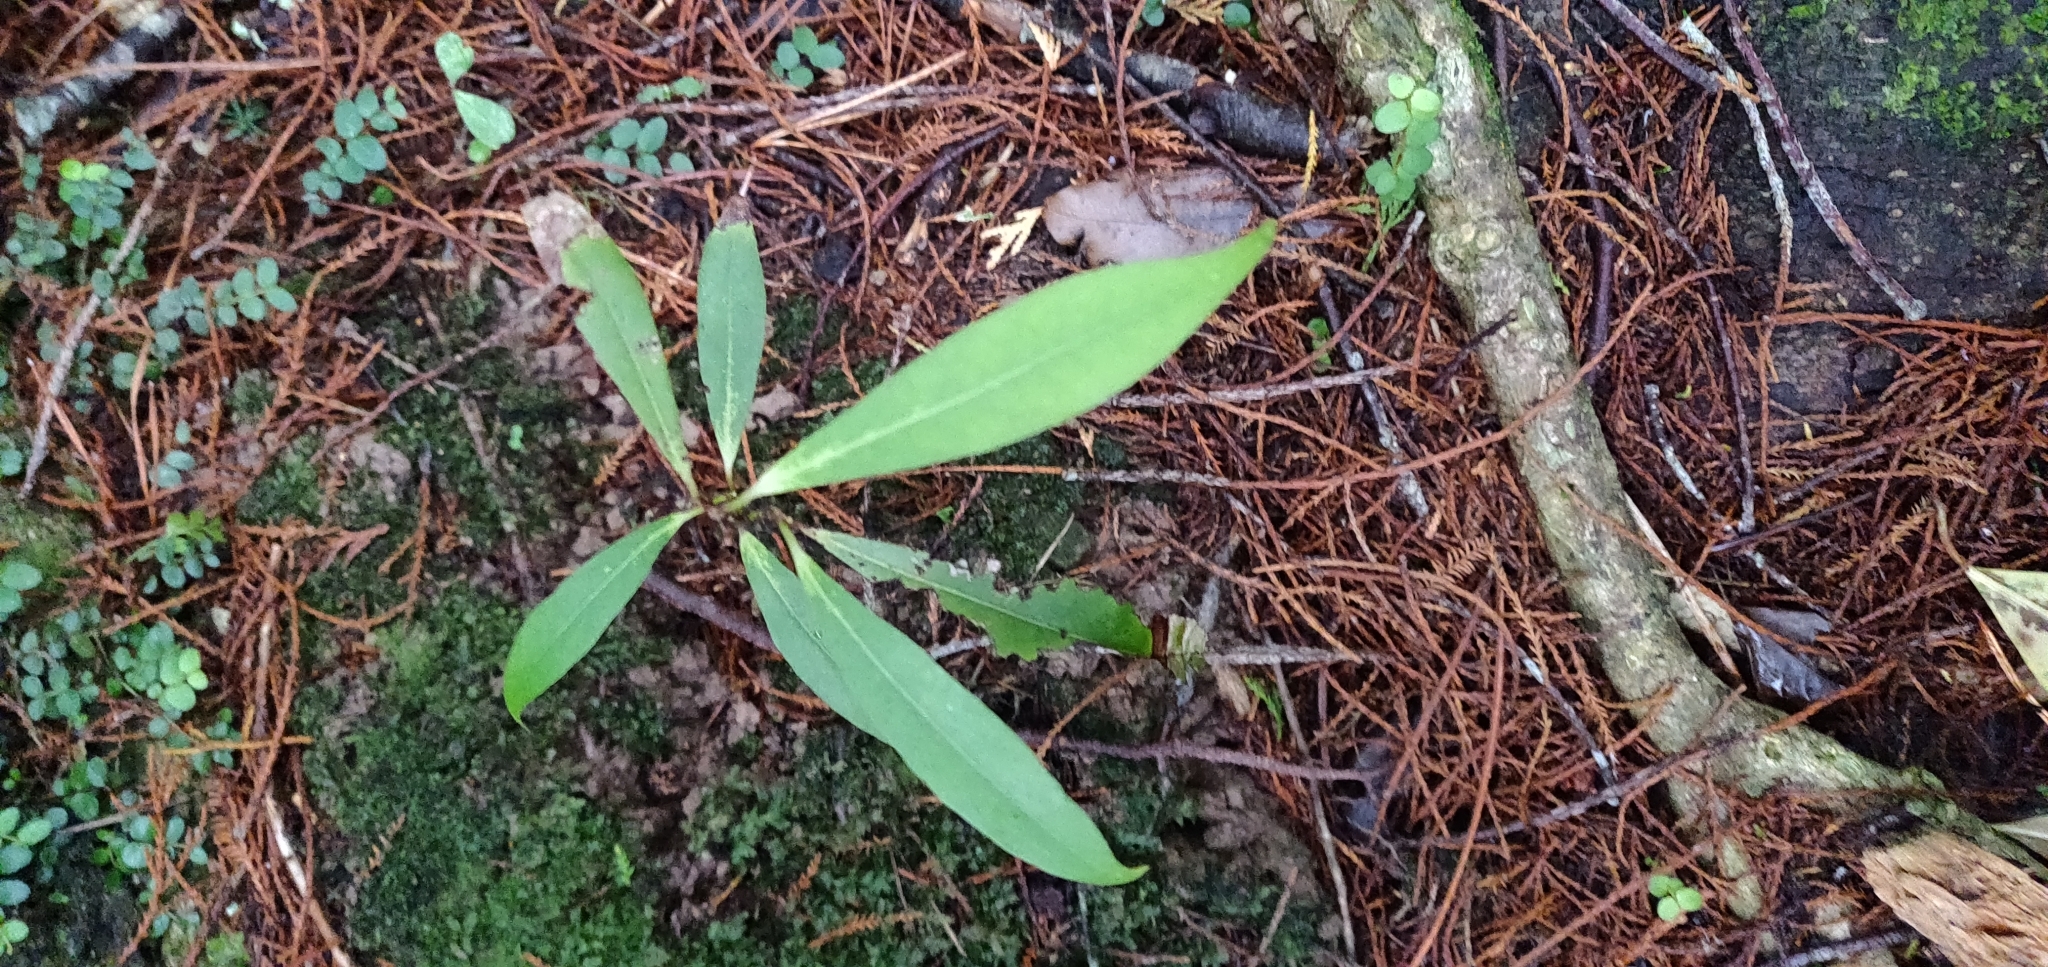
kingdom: Plantae
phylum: Tracheophyta
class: Magnoliopsida
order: Laurales
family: Lauraceae
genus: Beilschmiedia
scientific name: Beilschmiedia tawa
